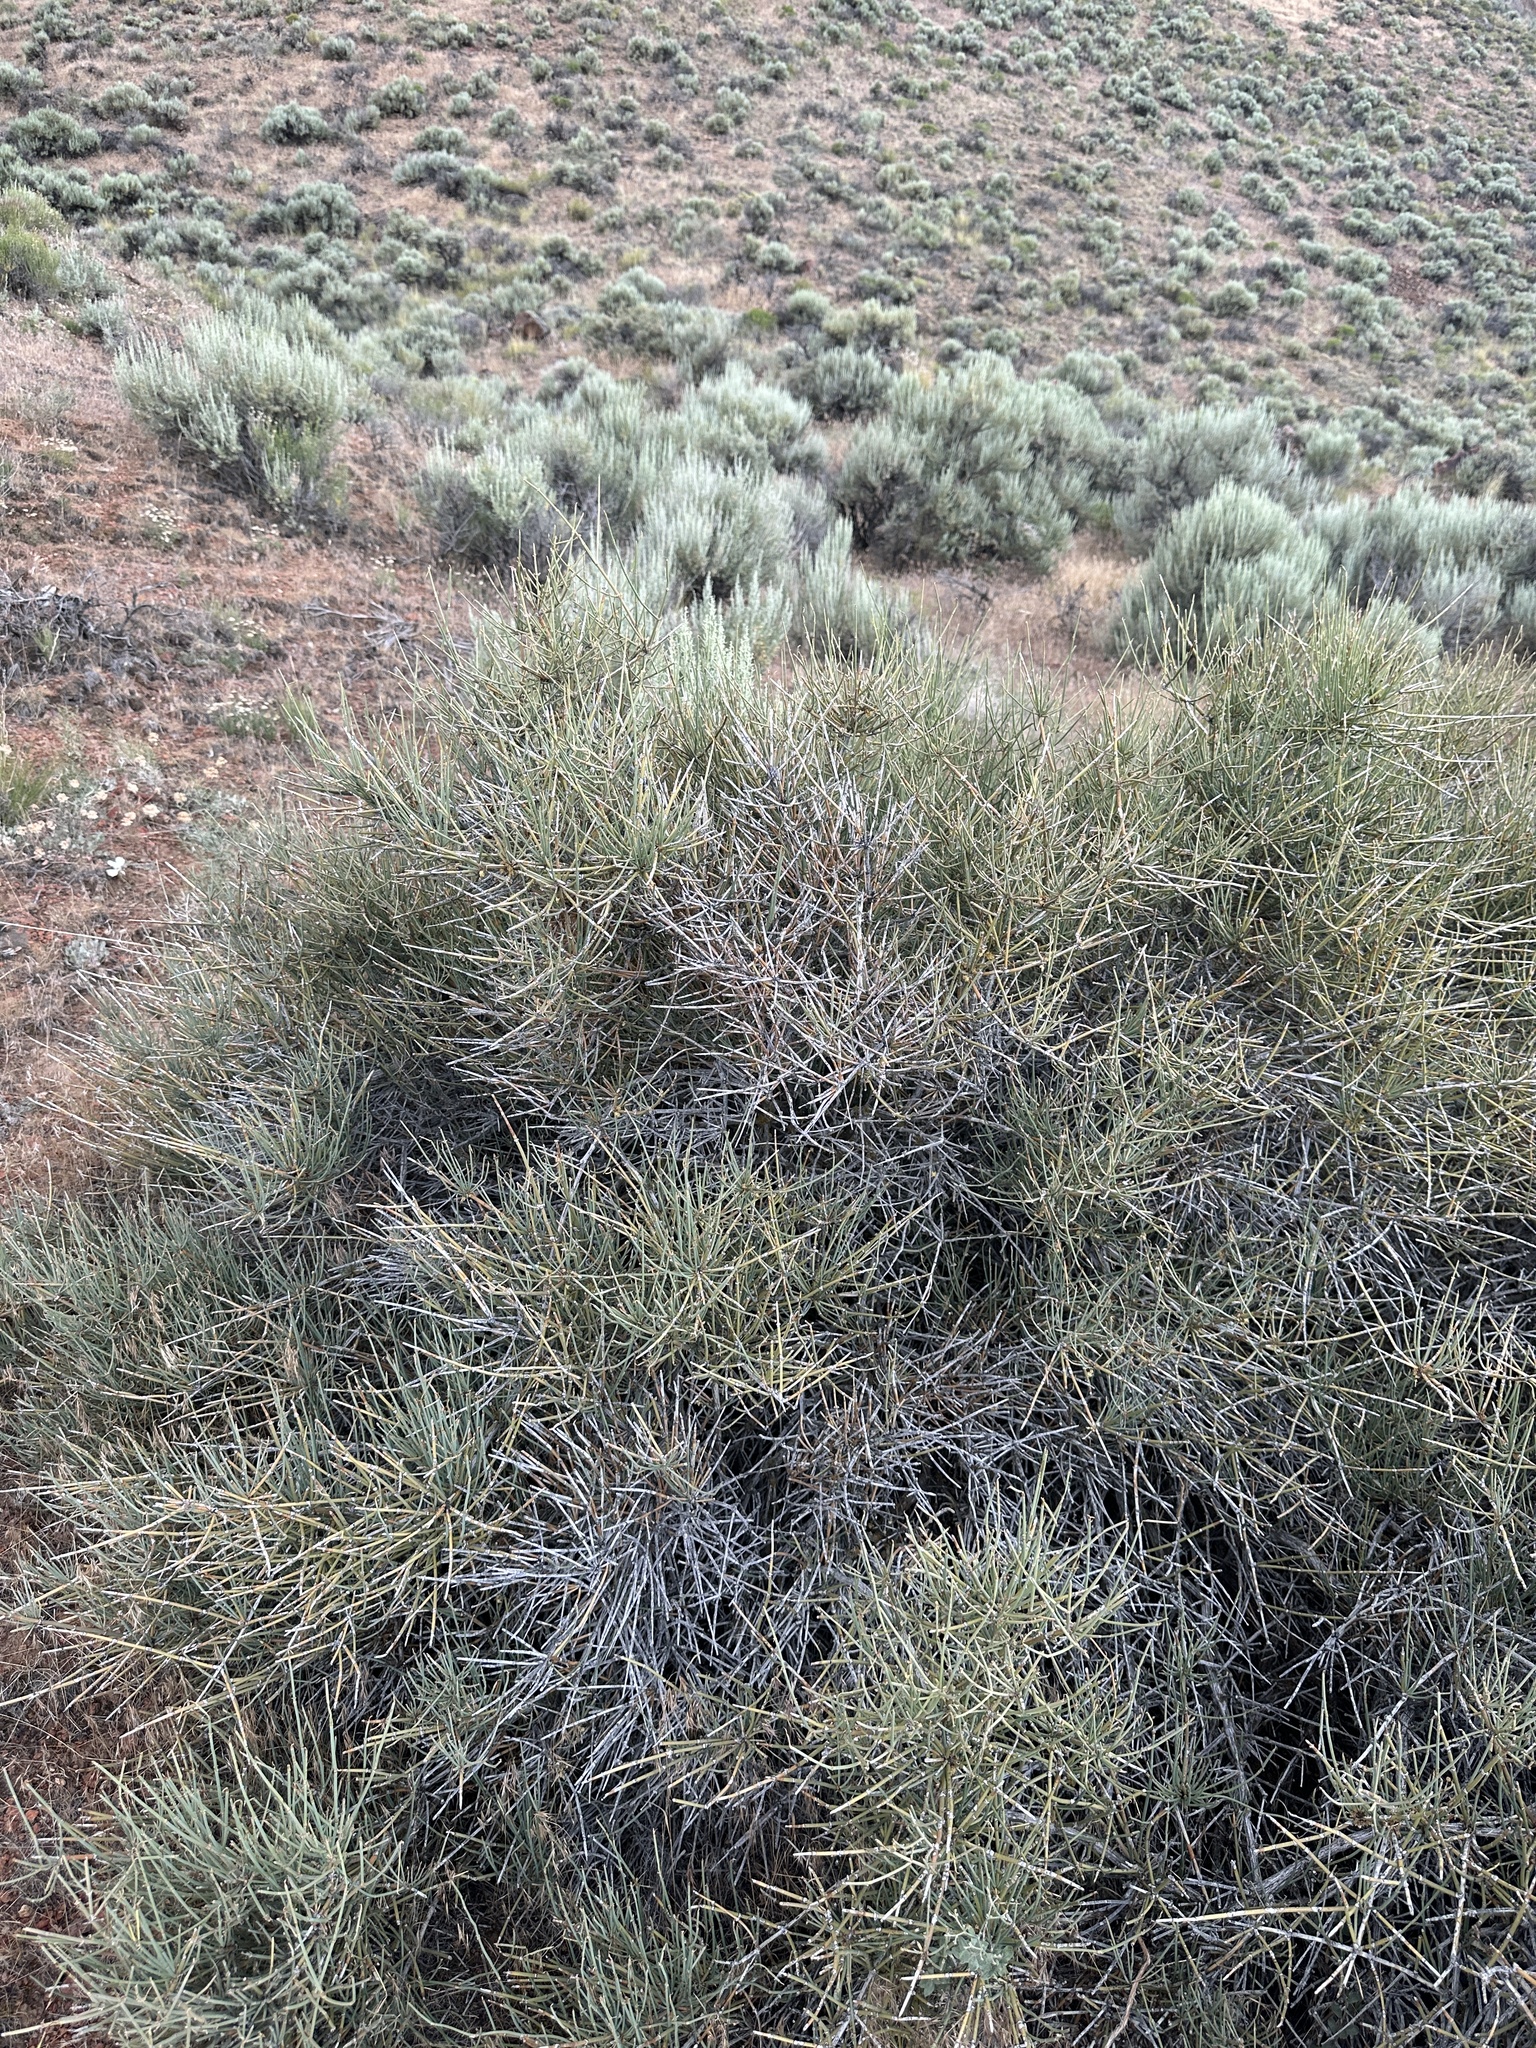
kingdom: Plantae
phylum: Tracheophyta
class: Gnetopsida
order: Ephedrales
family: Ephedraceae
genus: Ephedra
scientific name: Ephedra nevadensis
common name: Gray ephedra
